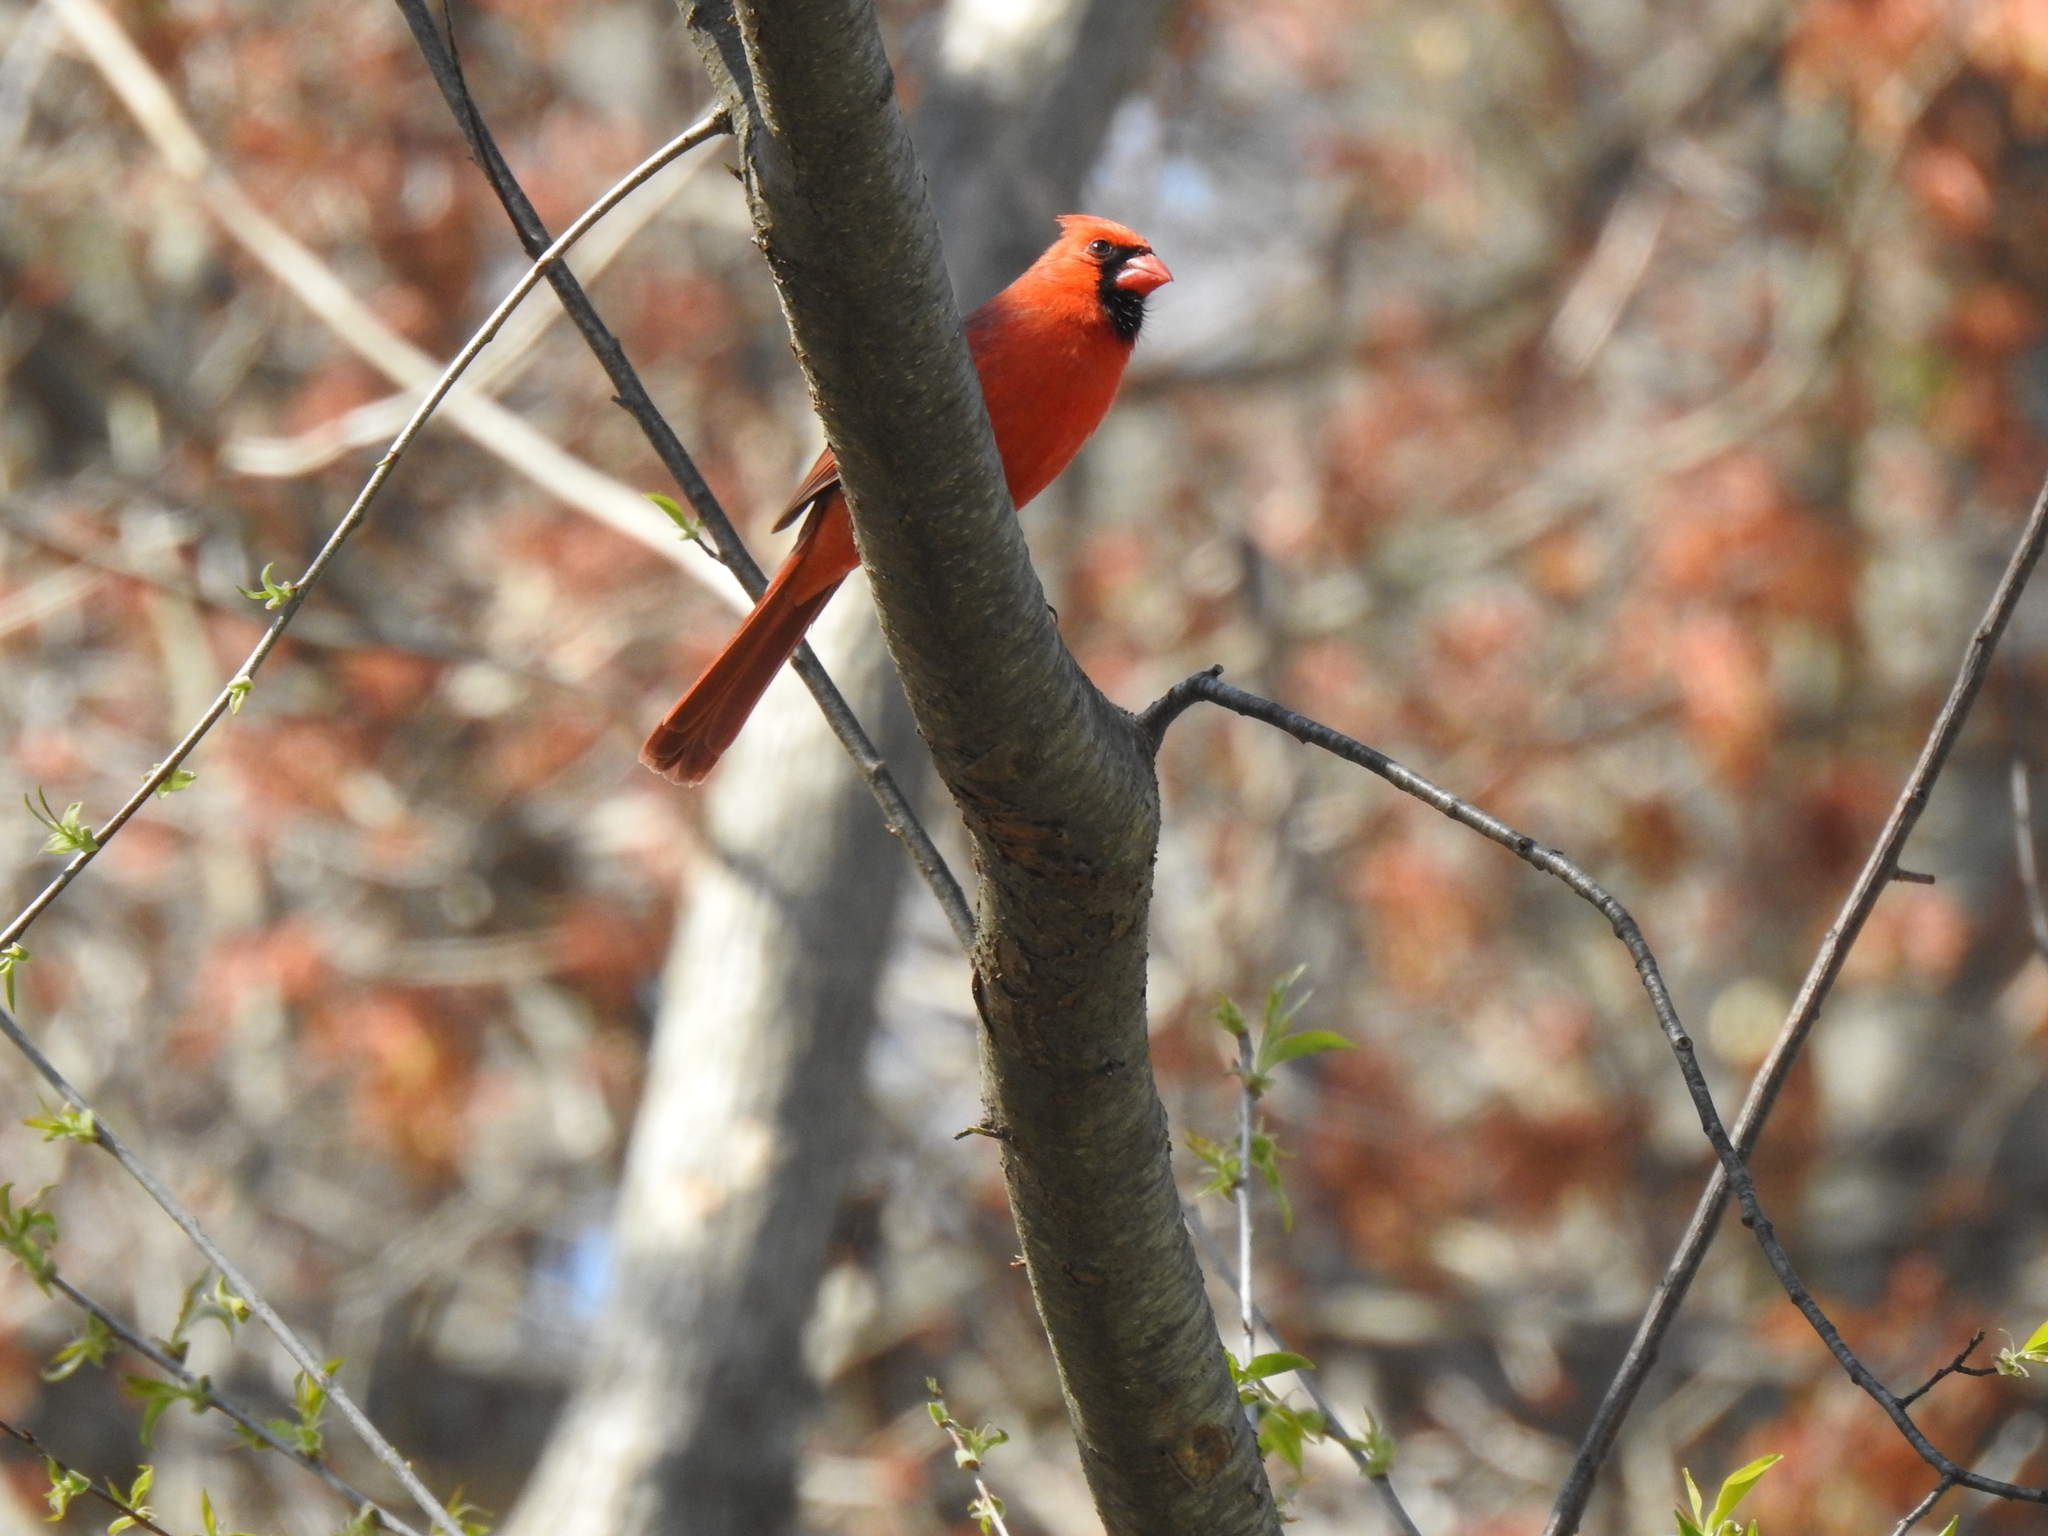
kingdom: Animalia
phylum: Chordata
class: Aves
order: Passeriformes
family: Cardinalidae
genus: Cardinalis
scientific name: Cardinalis cardinalis
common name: Northern cardinal
